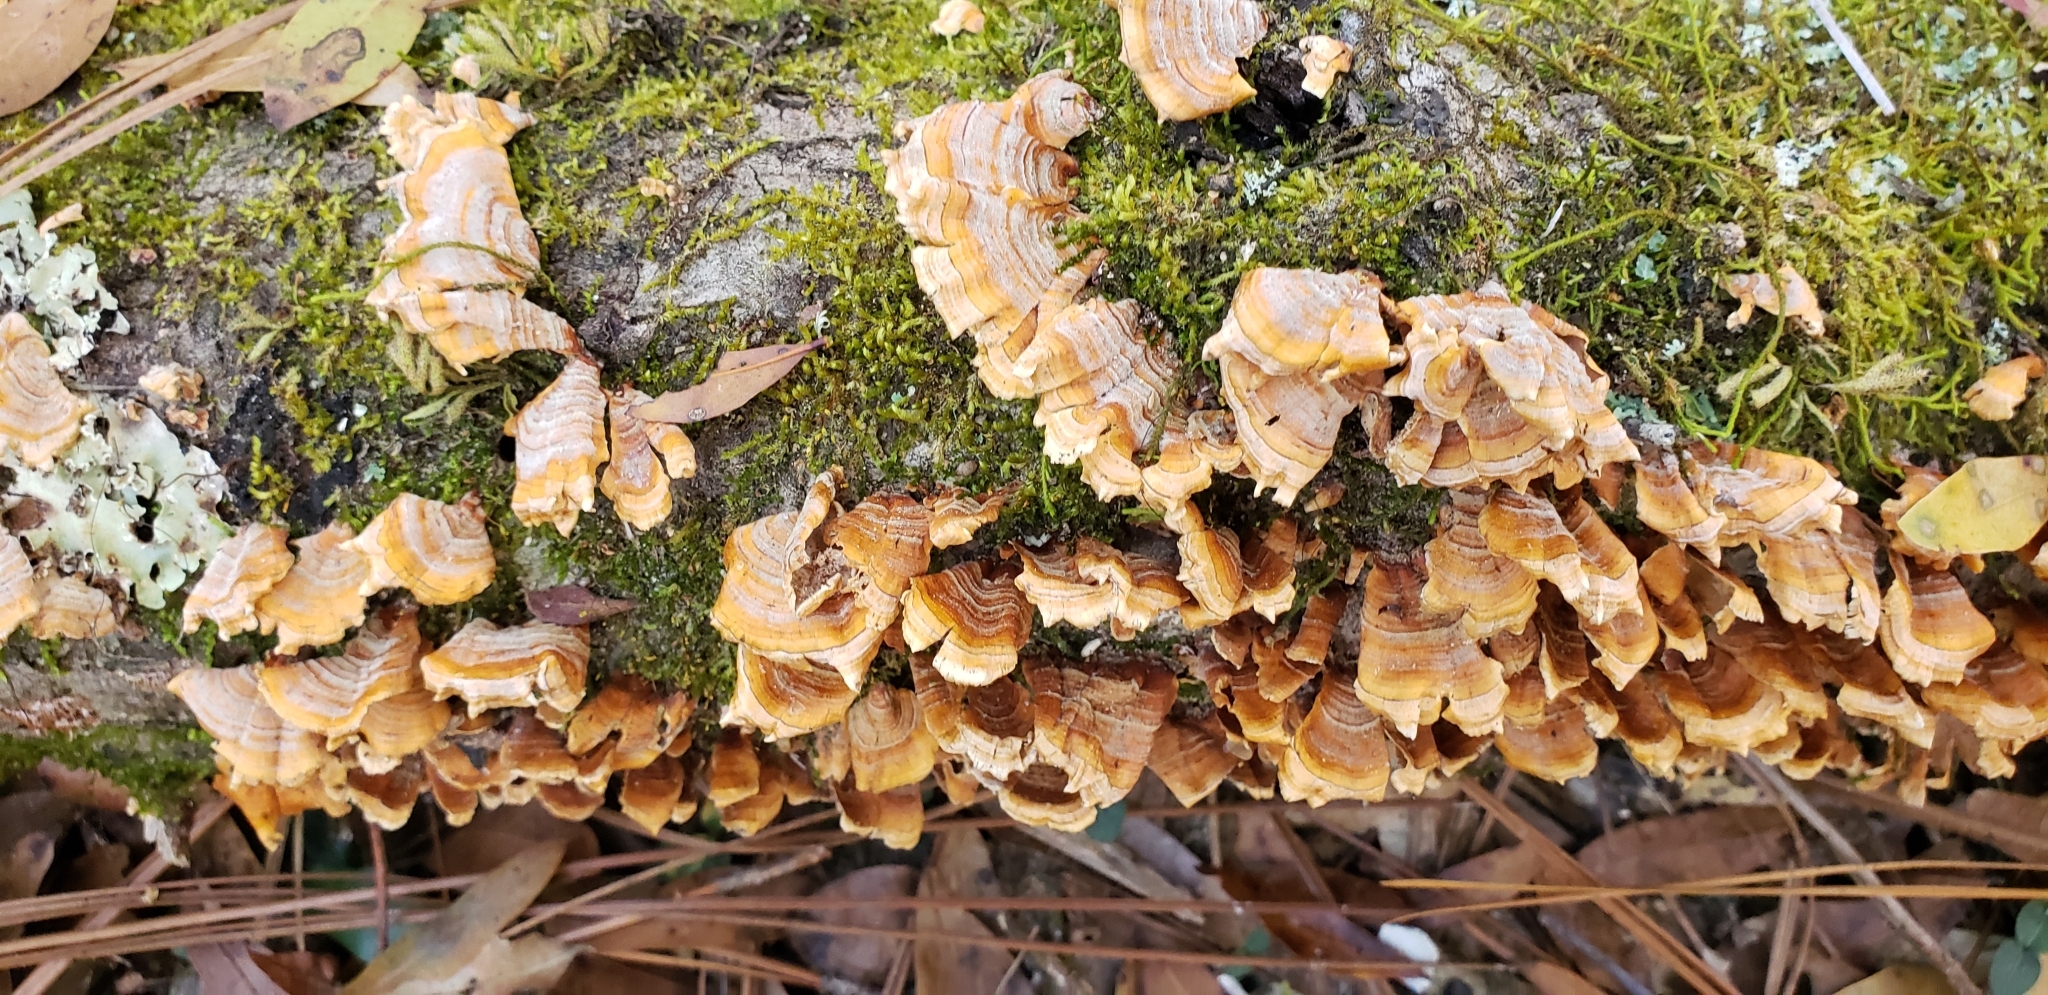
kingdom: Fungi
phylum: Basidiomycota
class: Agaricomycetes
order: Russulales
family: Stereaceae
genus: Stereum
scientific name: Stereum complicatum
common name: Crowded parchment
